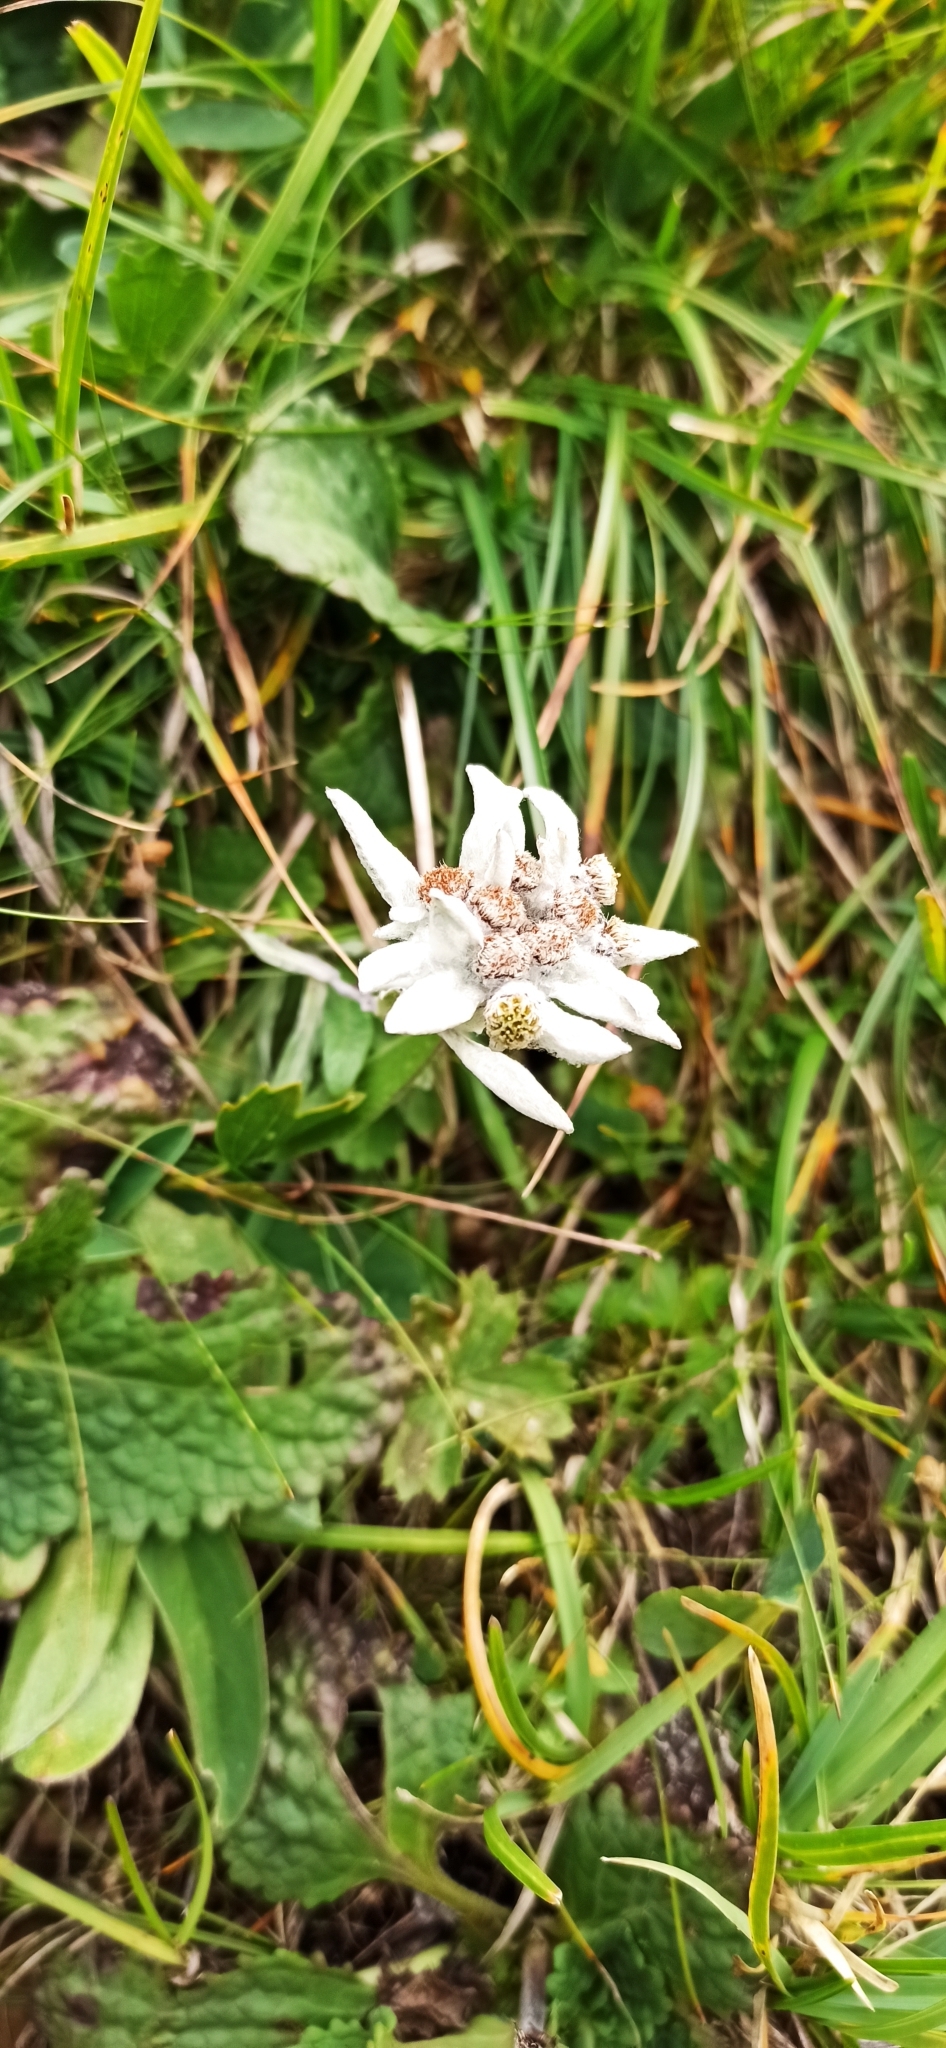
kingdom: Plantae
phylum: Tracheophyta
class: Magnoliopsida
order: Asterales
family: Asteraceae
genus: Leontopodium
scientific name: Leontopodium nivale
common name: Edelweiss
